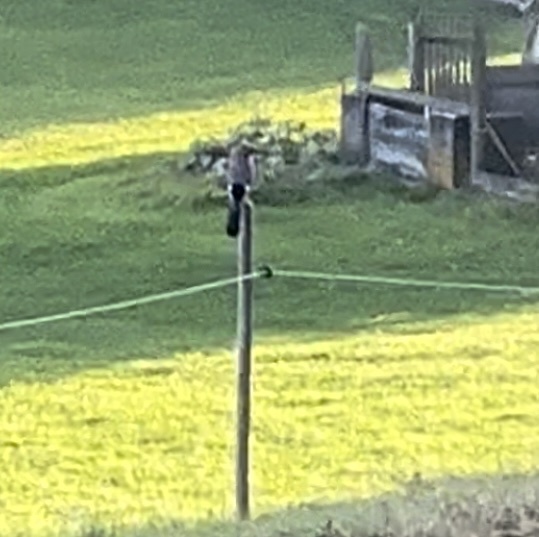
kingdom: Animalia
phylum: Chordata
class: Aves
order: Passeriformes
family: Corvidae
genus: Garrulus
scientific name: Garrulus glandarius
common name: Eurasian jay
